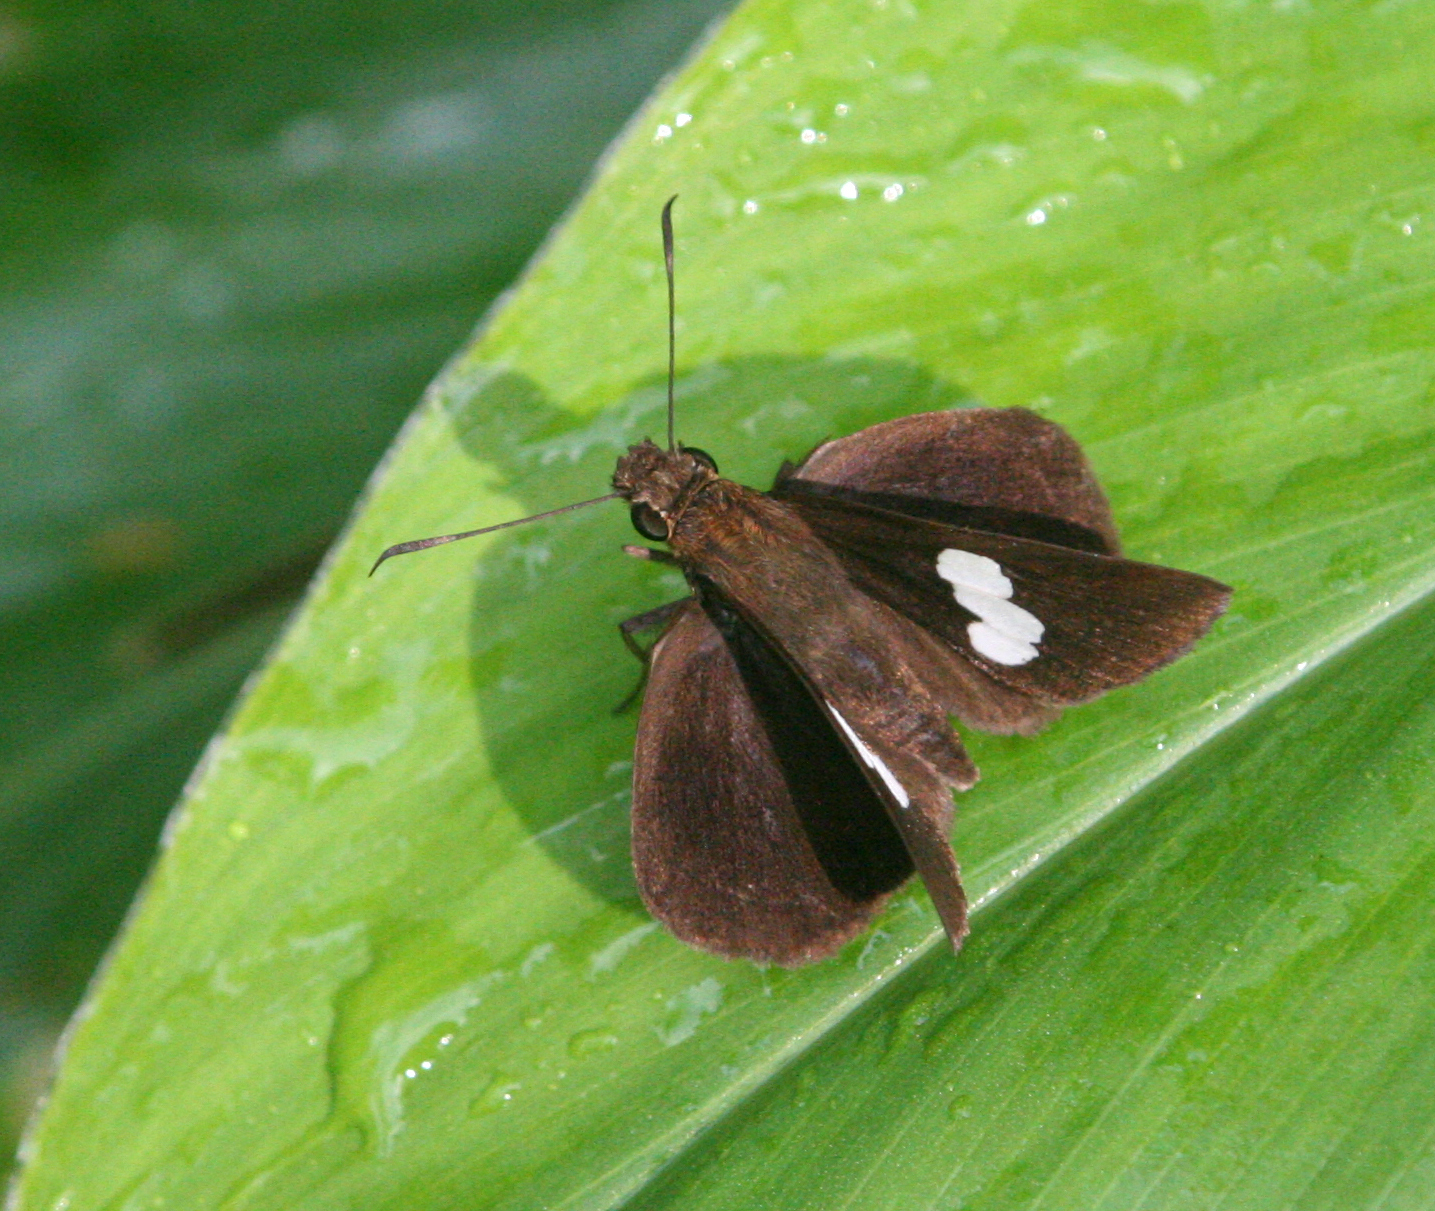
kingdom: Animalia
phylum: Arthropoda
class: Insecta
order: Lepidoptera
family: Hesperiidae
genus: Notocrypta
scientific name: Notocrypta paralysos
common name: Common banded demon
